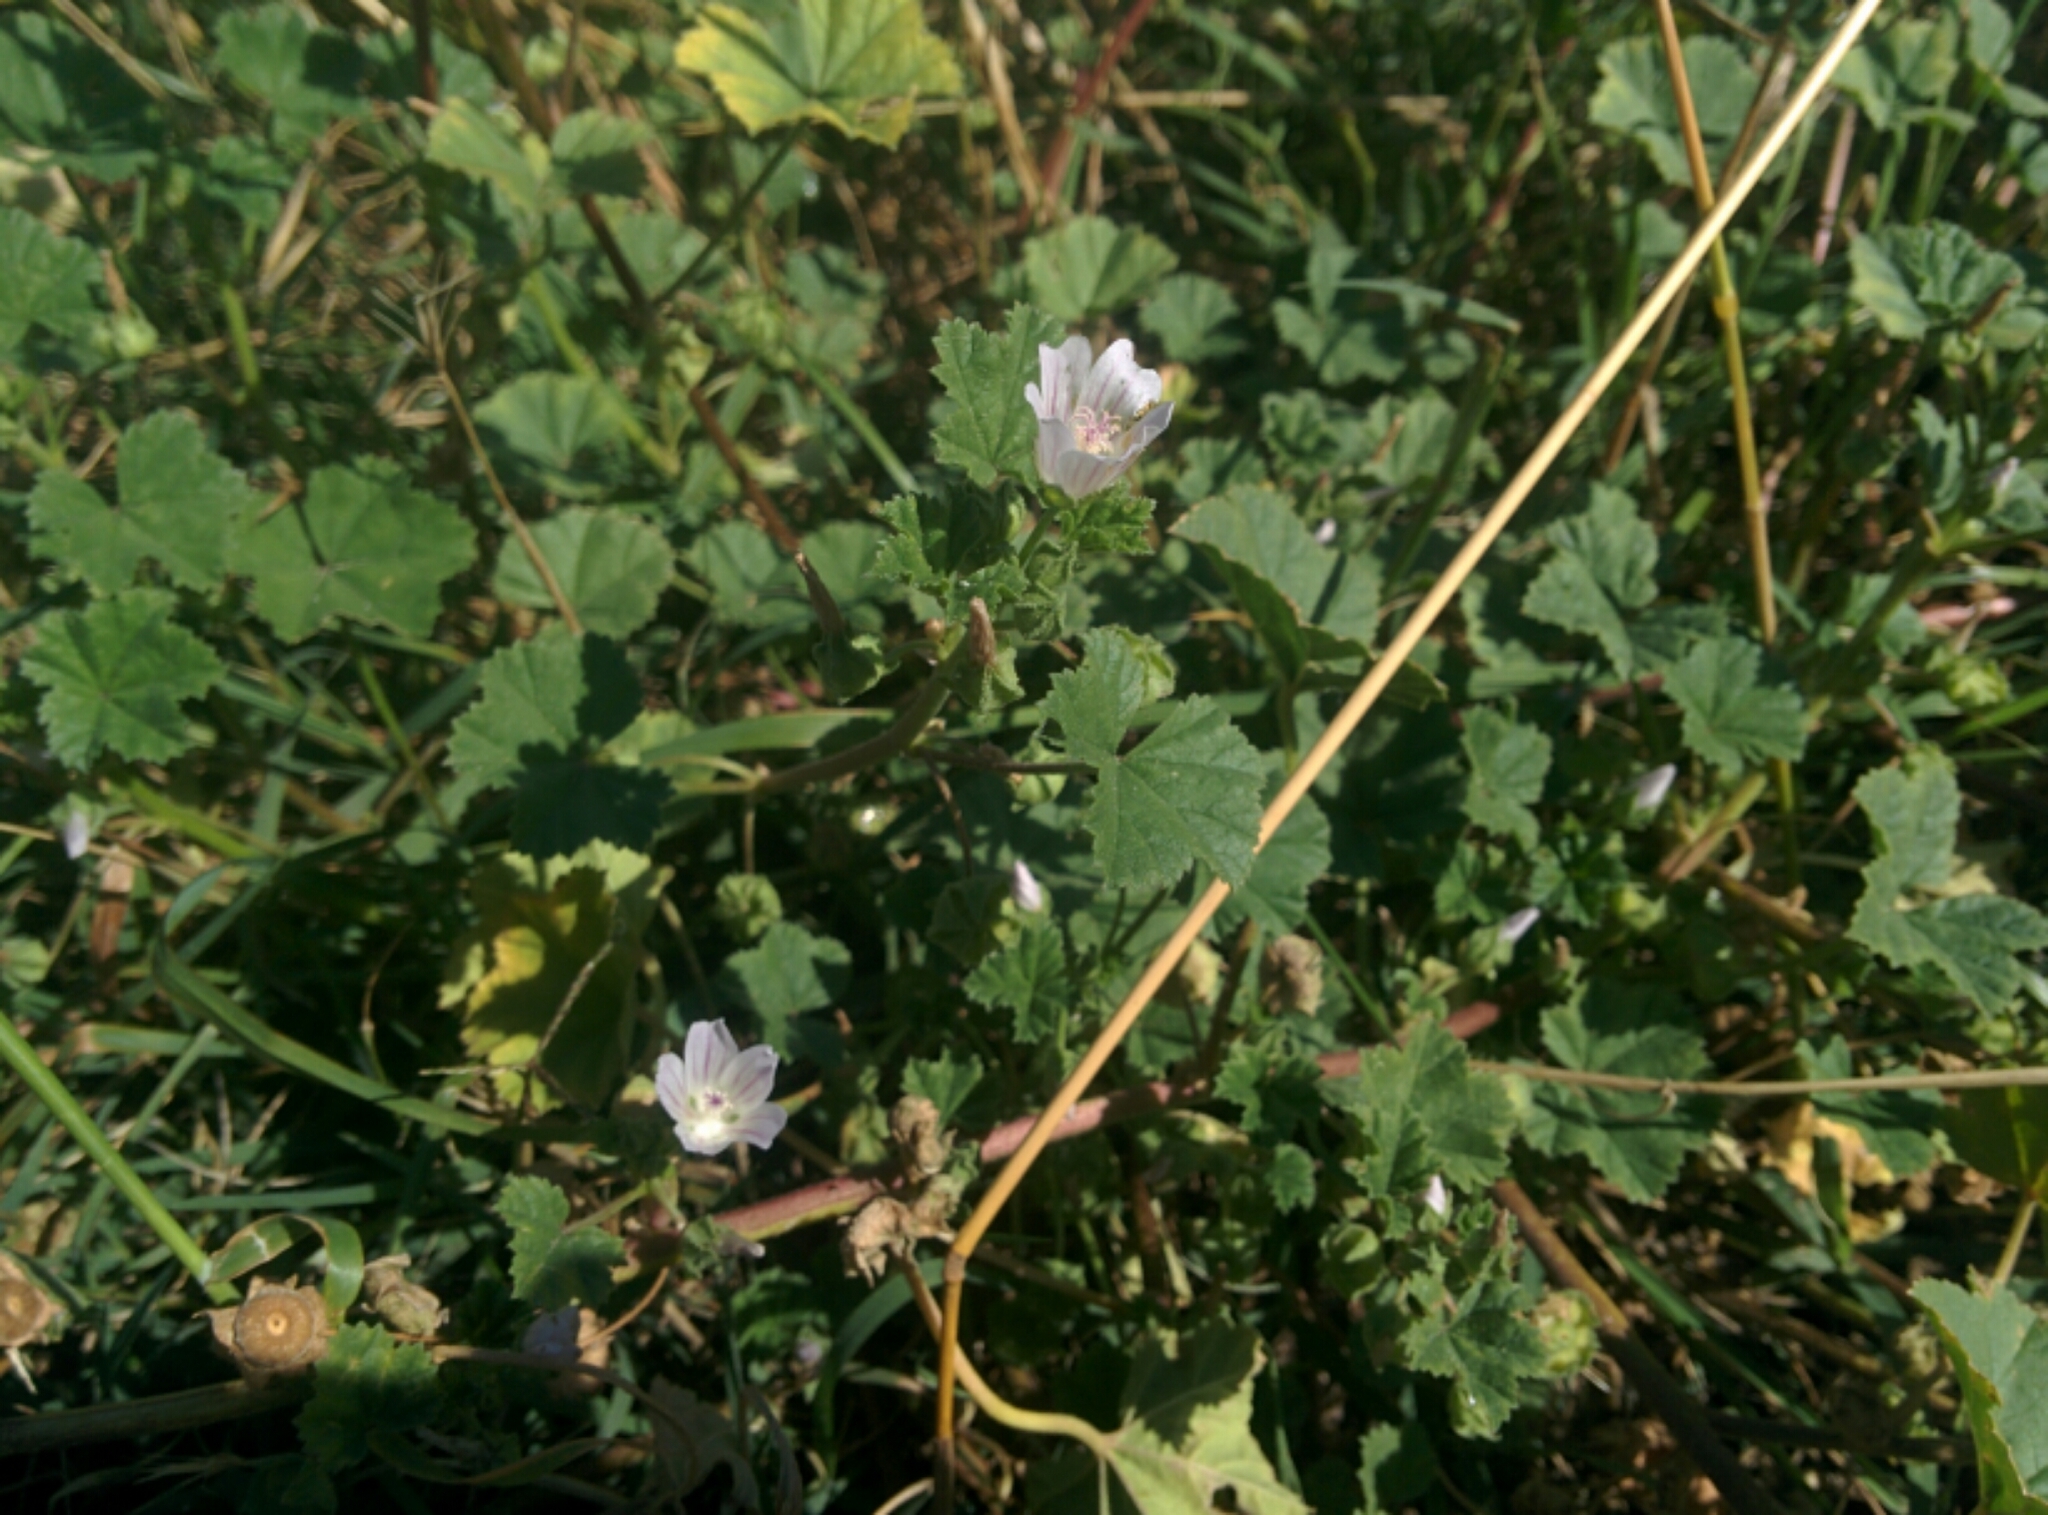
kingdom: Plantae
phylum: Tracheophyta
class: Magnoliopsida
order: Malvales
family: Malvaceae
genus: Malva
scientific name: Malva neglecta
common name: Common mallow
